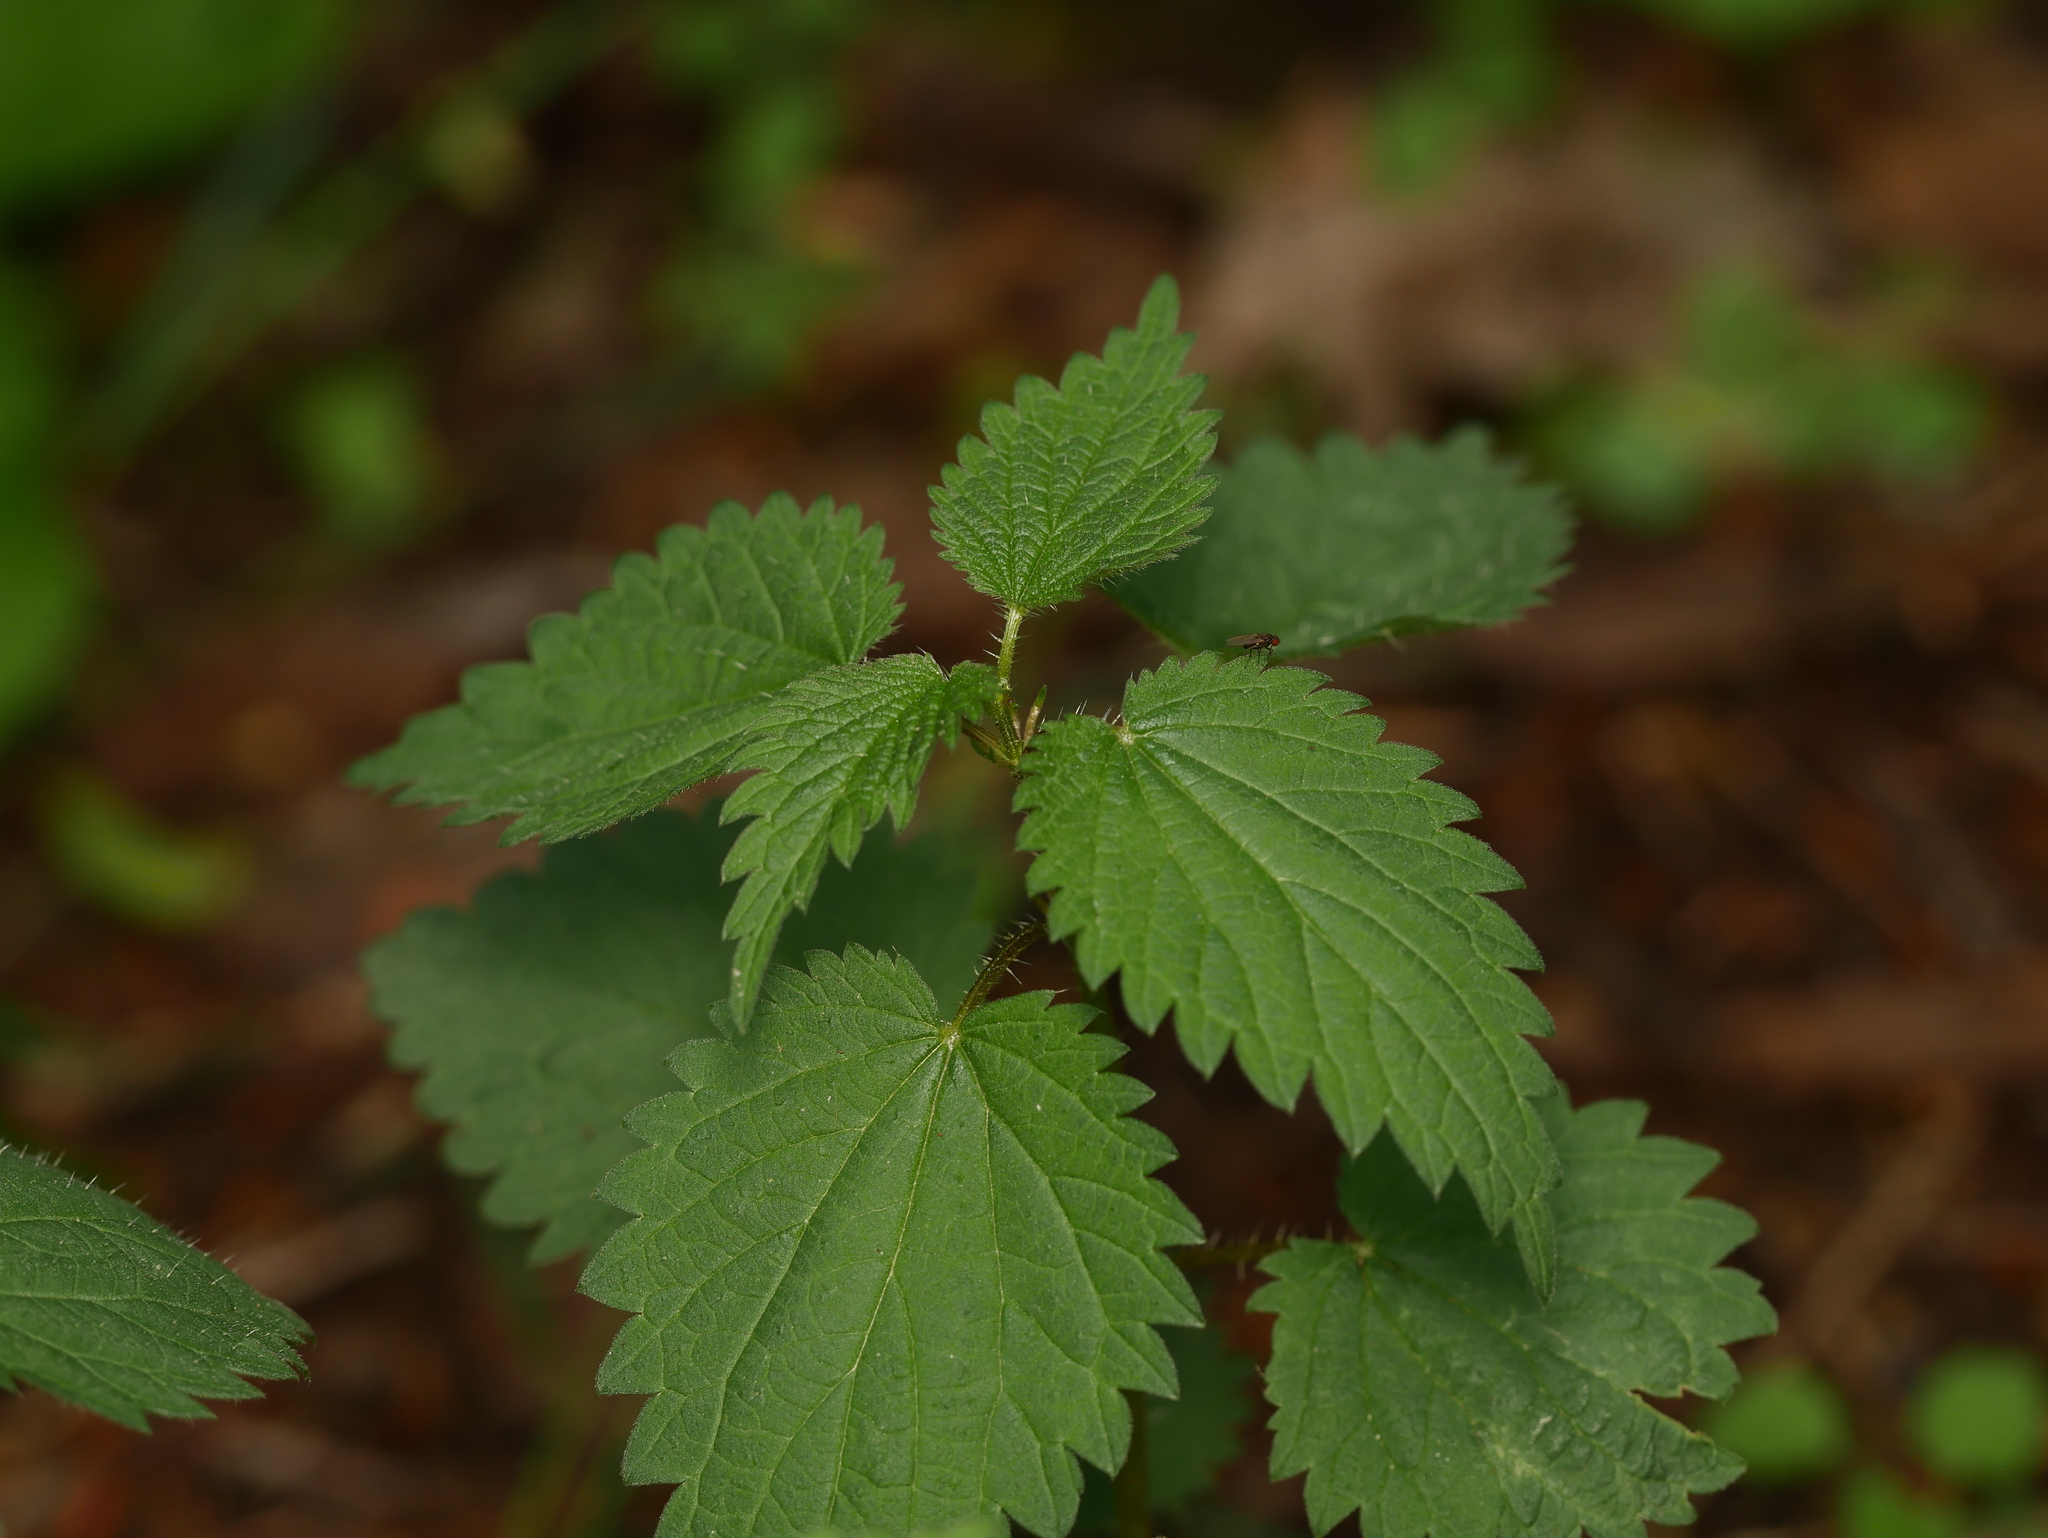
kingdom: Plantae
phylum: Tracheophyta
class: Magnoliopsida
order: Rosales
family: Urticaceae
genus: Urtica
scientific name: Urtica dioica
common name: Common nettle
